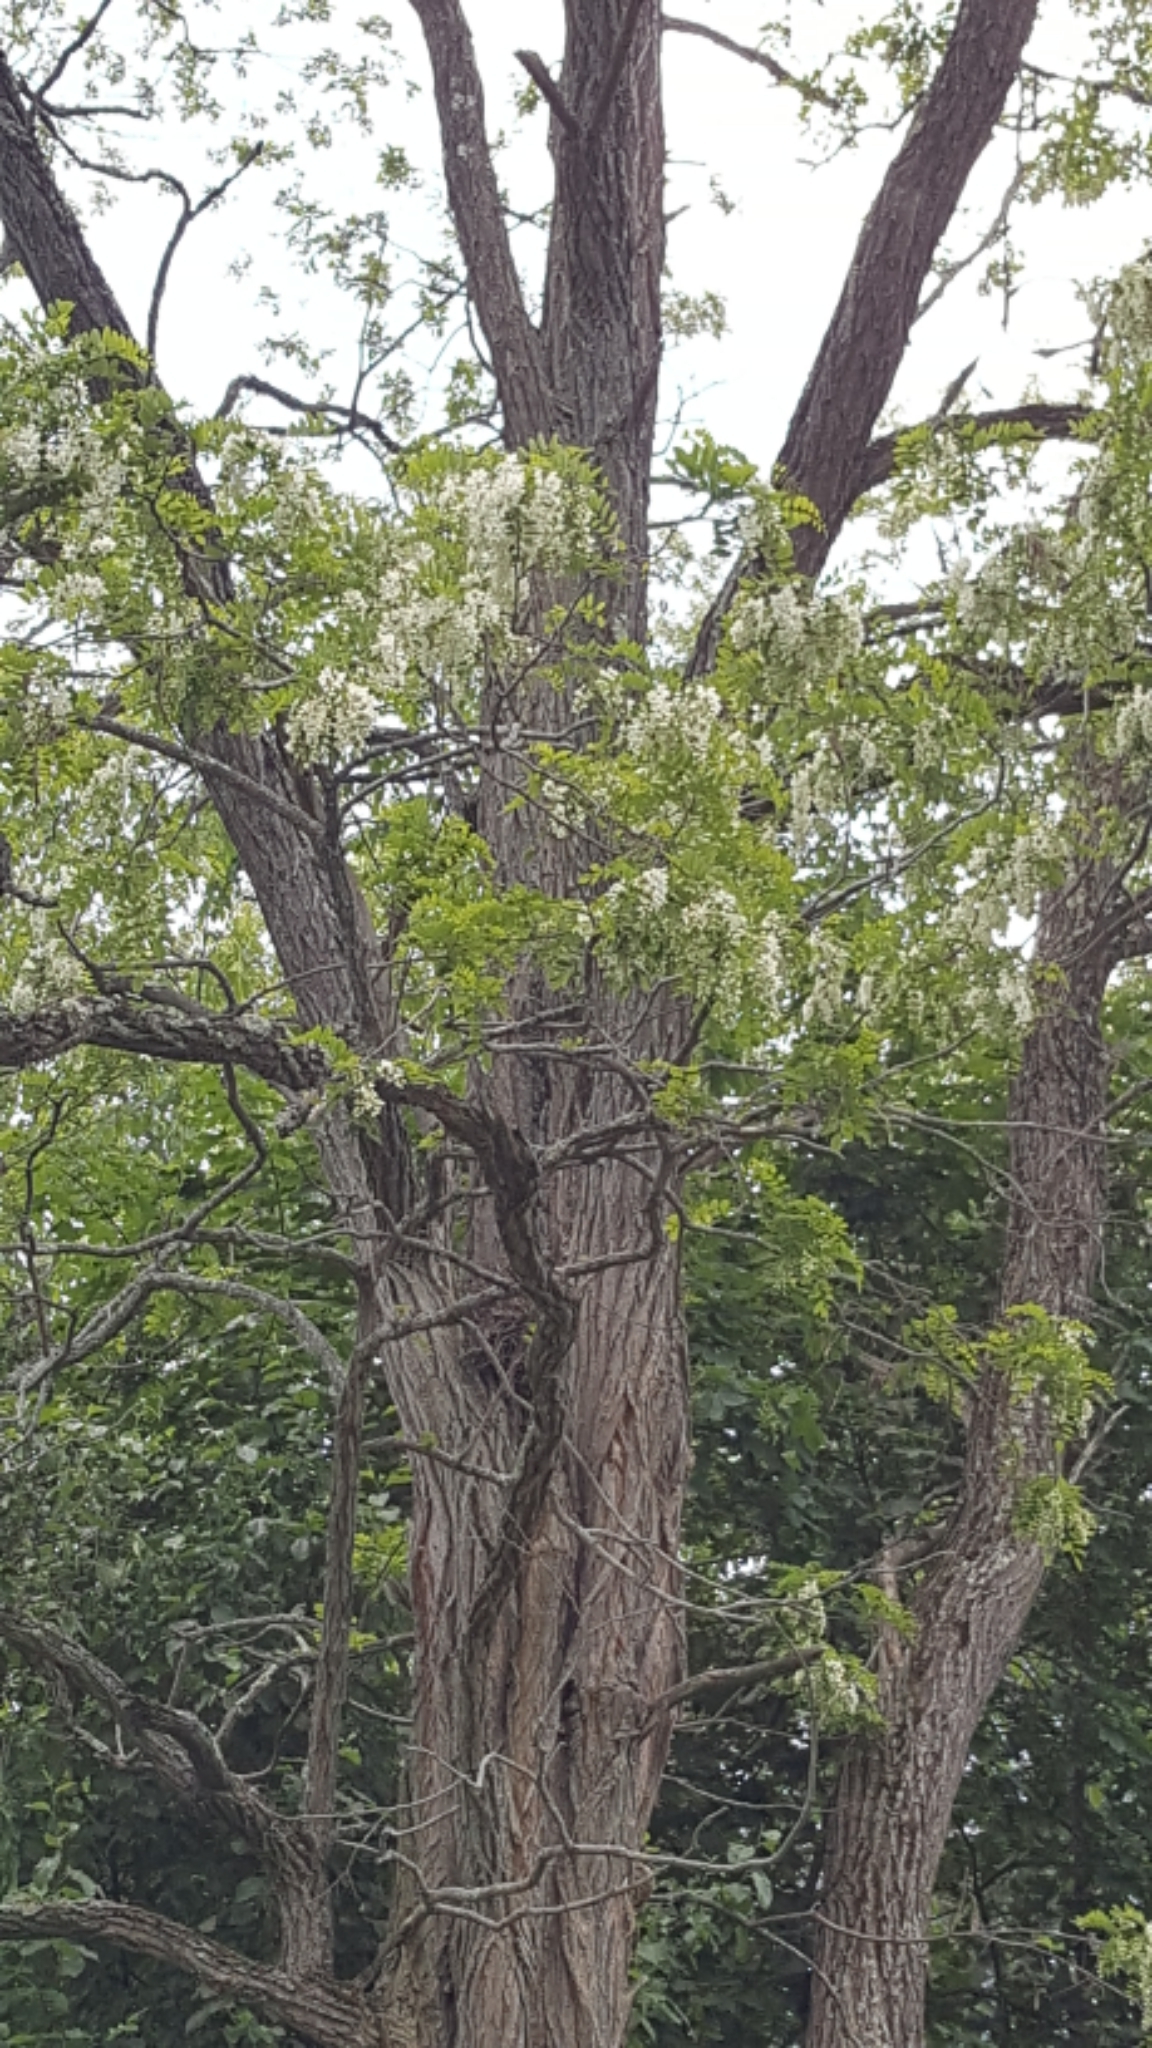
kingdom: Plantae
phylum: Tracheophyta
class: Magnoliopsida
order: Fabales
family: Fabaceae
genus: Robinia
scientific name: Robinia pseudoacacia
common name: Black locust
